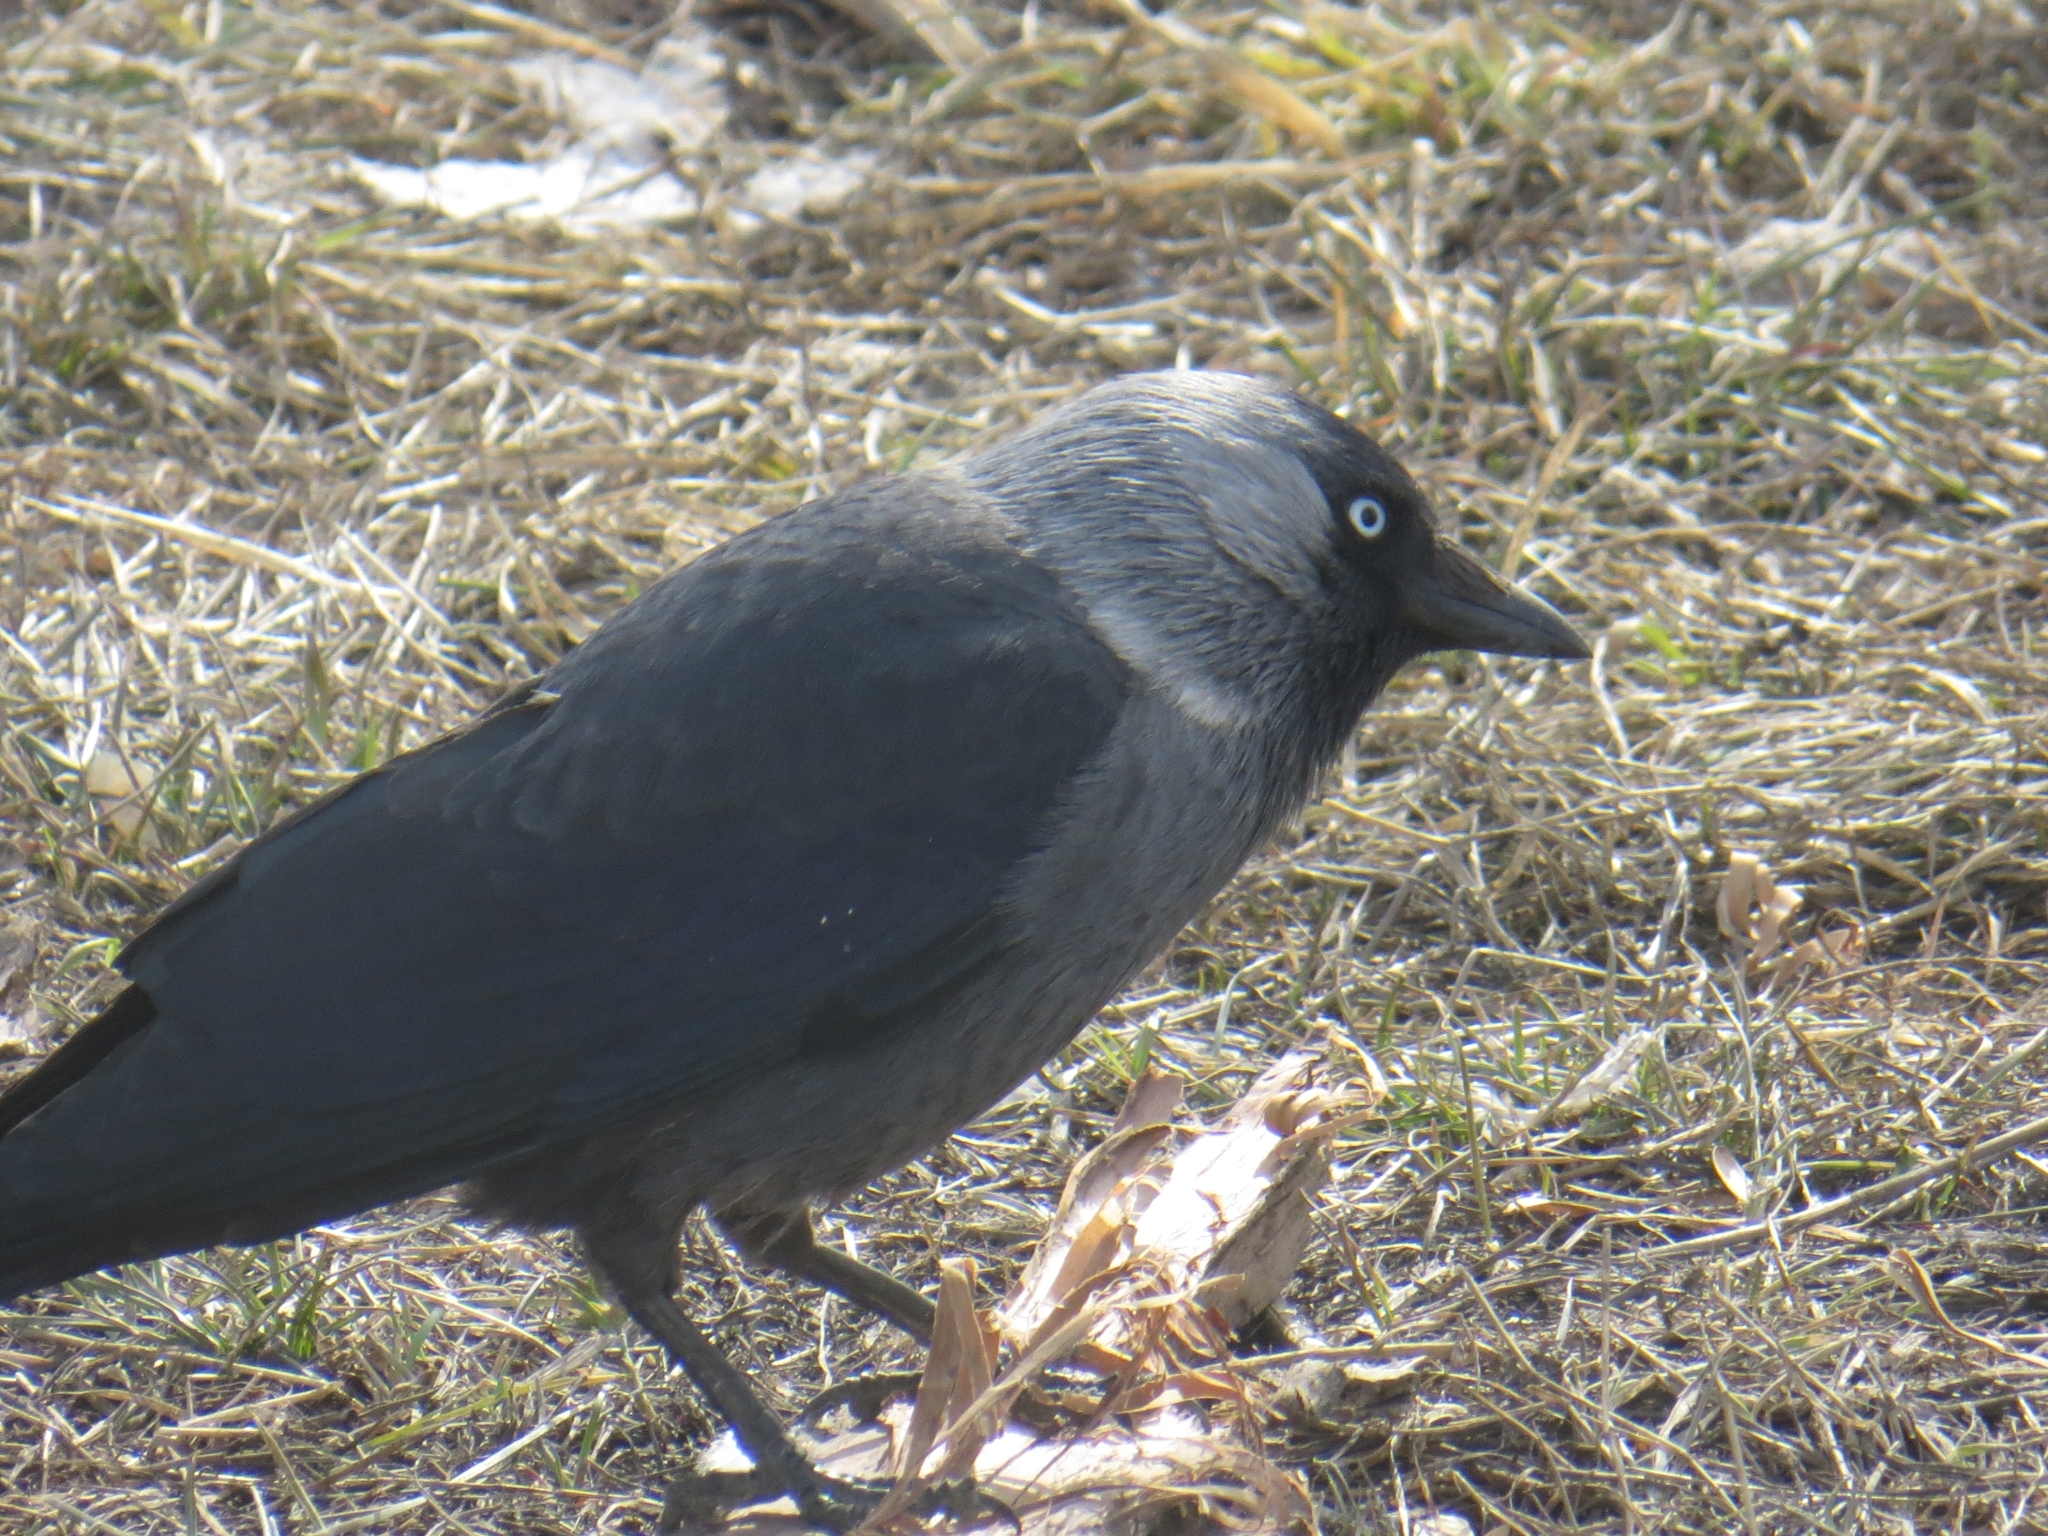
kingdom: Animalia
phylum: Chordata
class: Aves
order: Passeriformes
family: Corvidae
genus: Coloeus
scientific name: Coloeus monedula
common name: Western jackdaw
